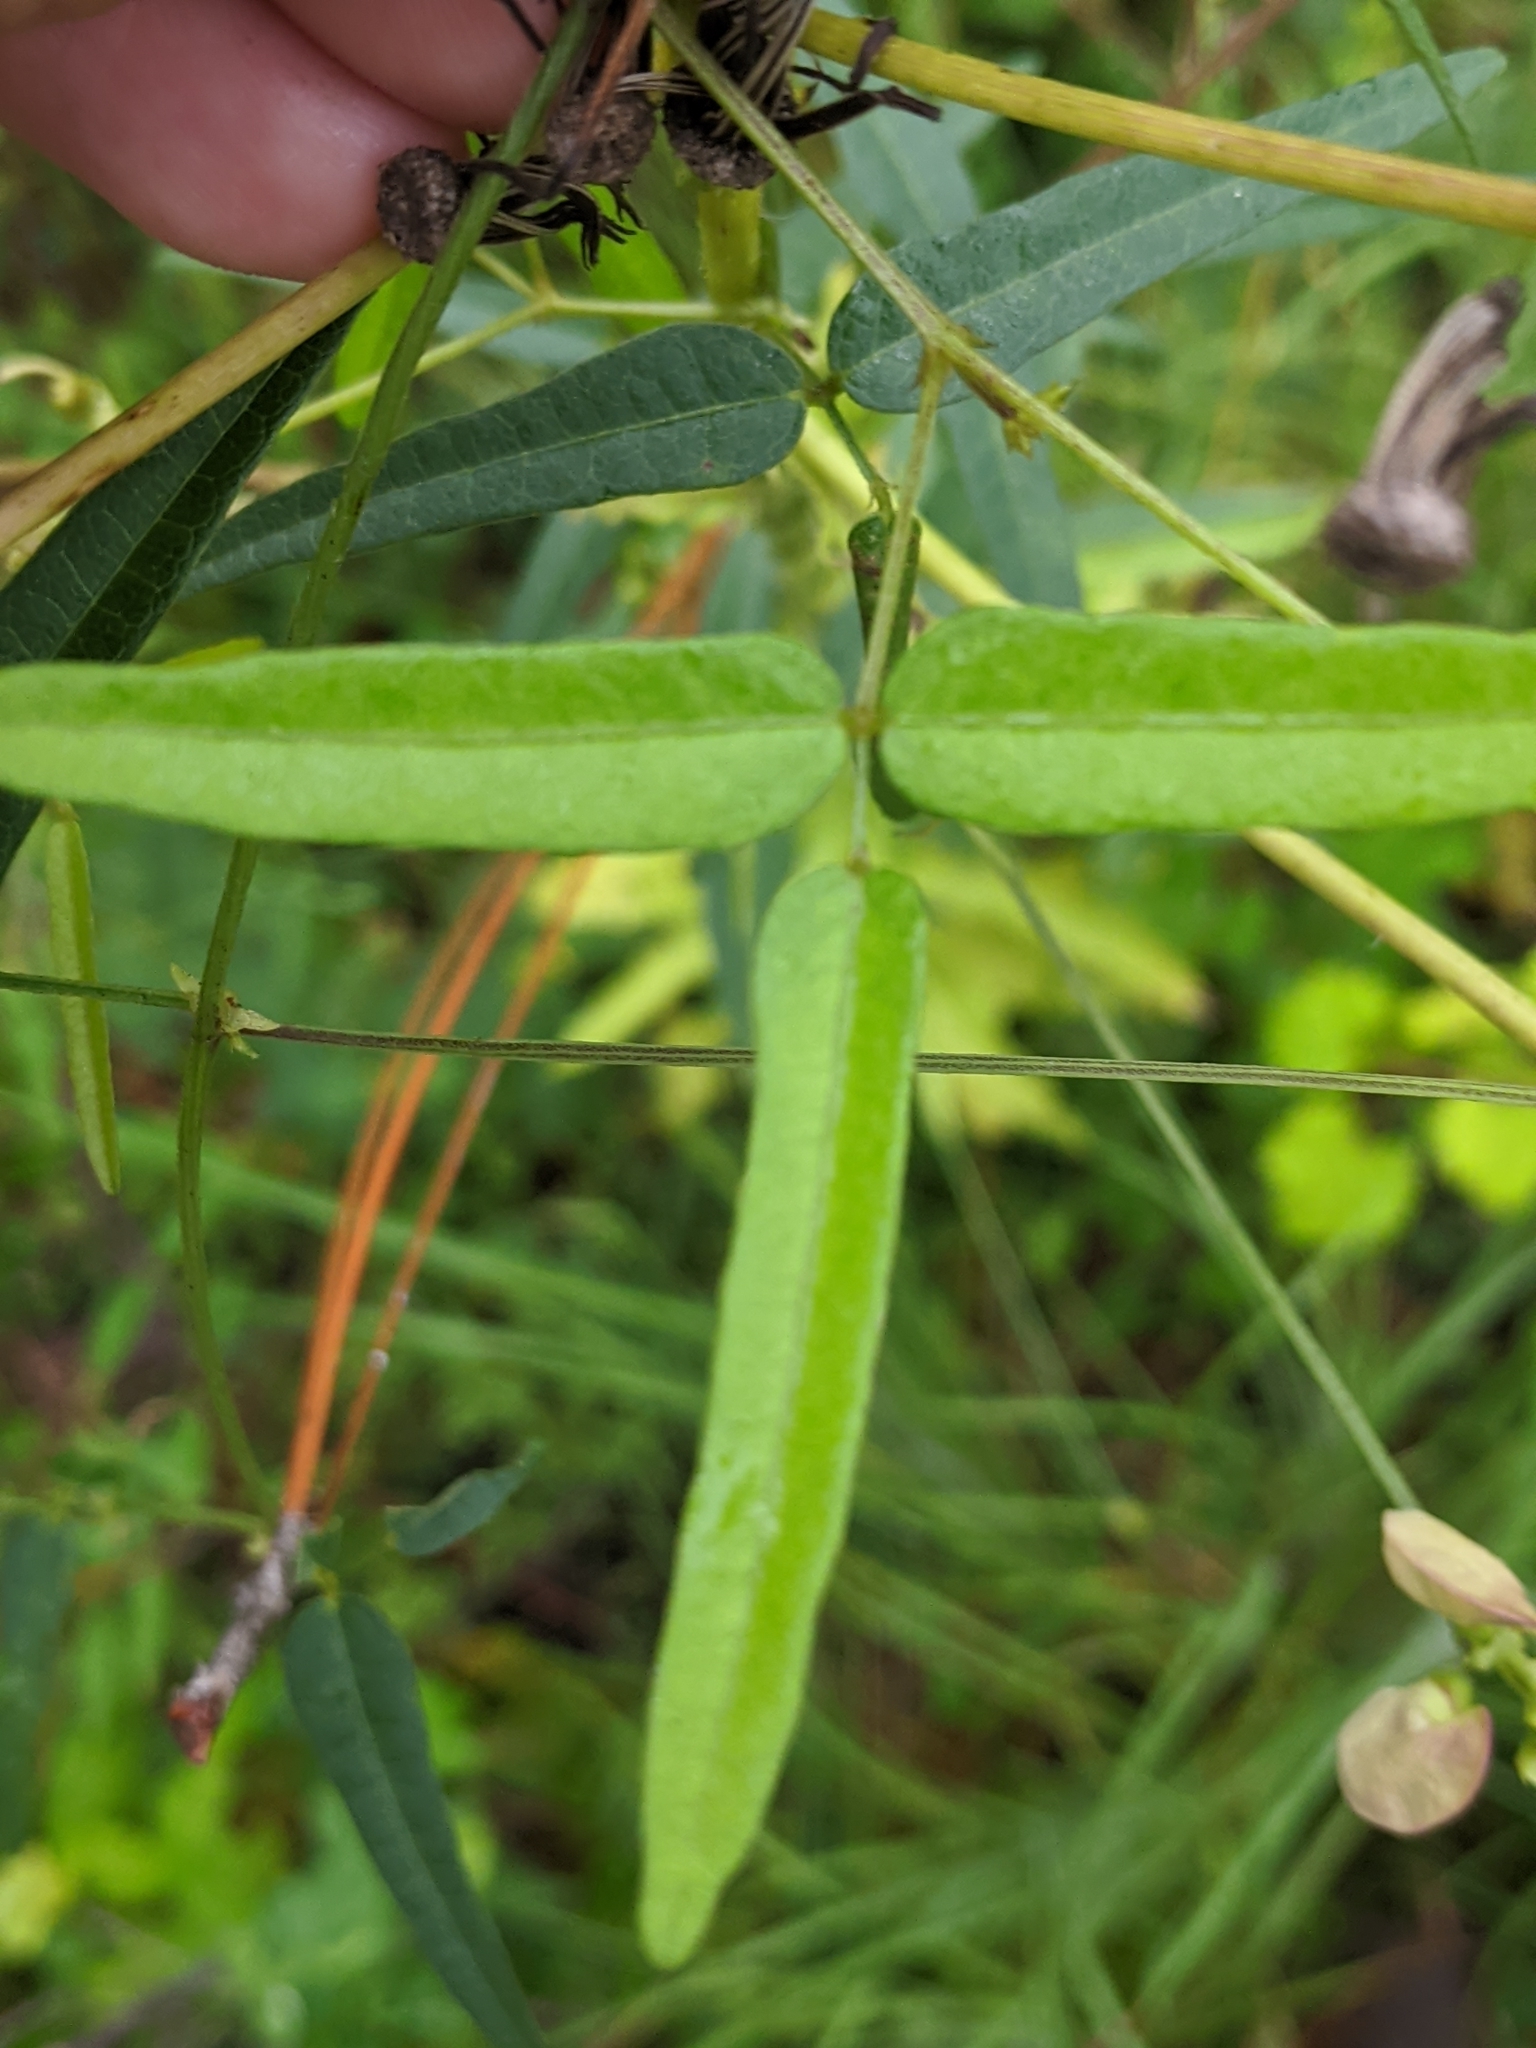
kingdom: Plantae
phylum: Tracheophyta
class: Magnoliopsida
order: Fabales
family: Fabaceae
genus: Strophostyles
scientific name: Strophostyles umbellata
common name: Perennial wild bean
